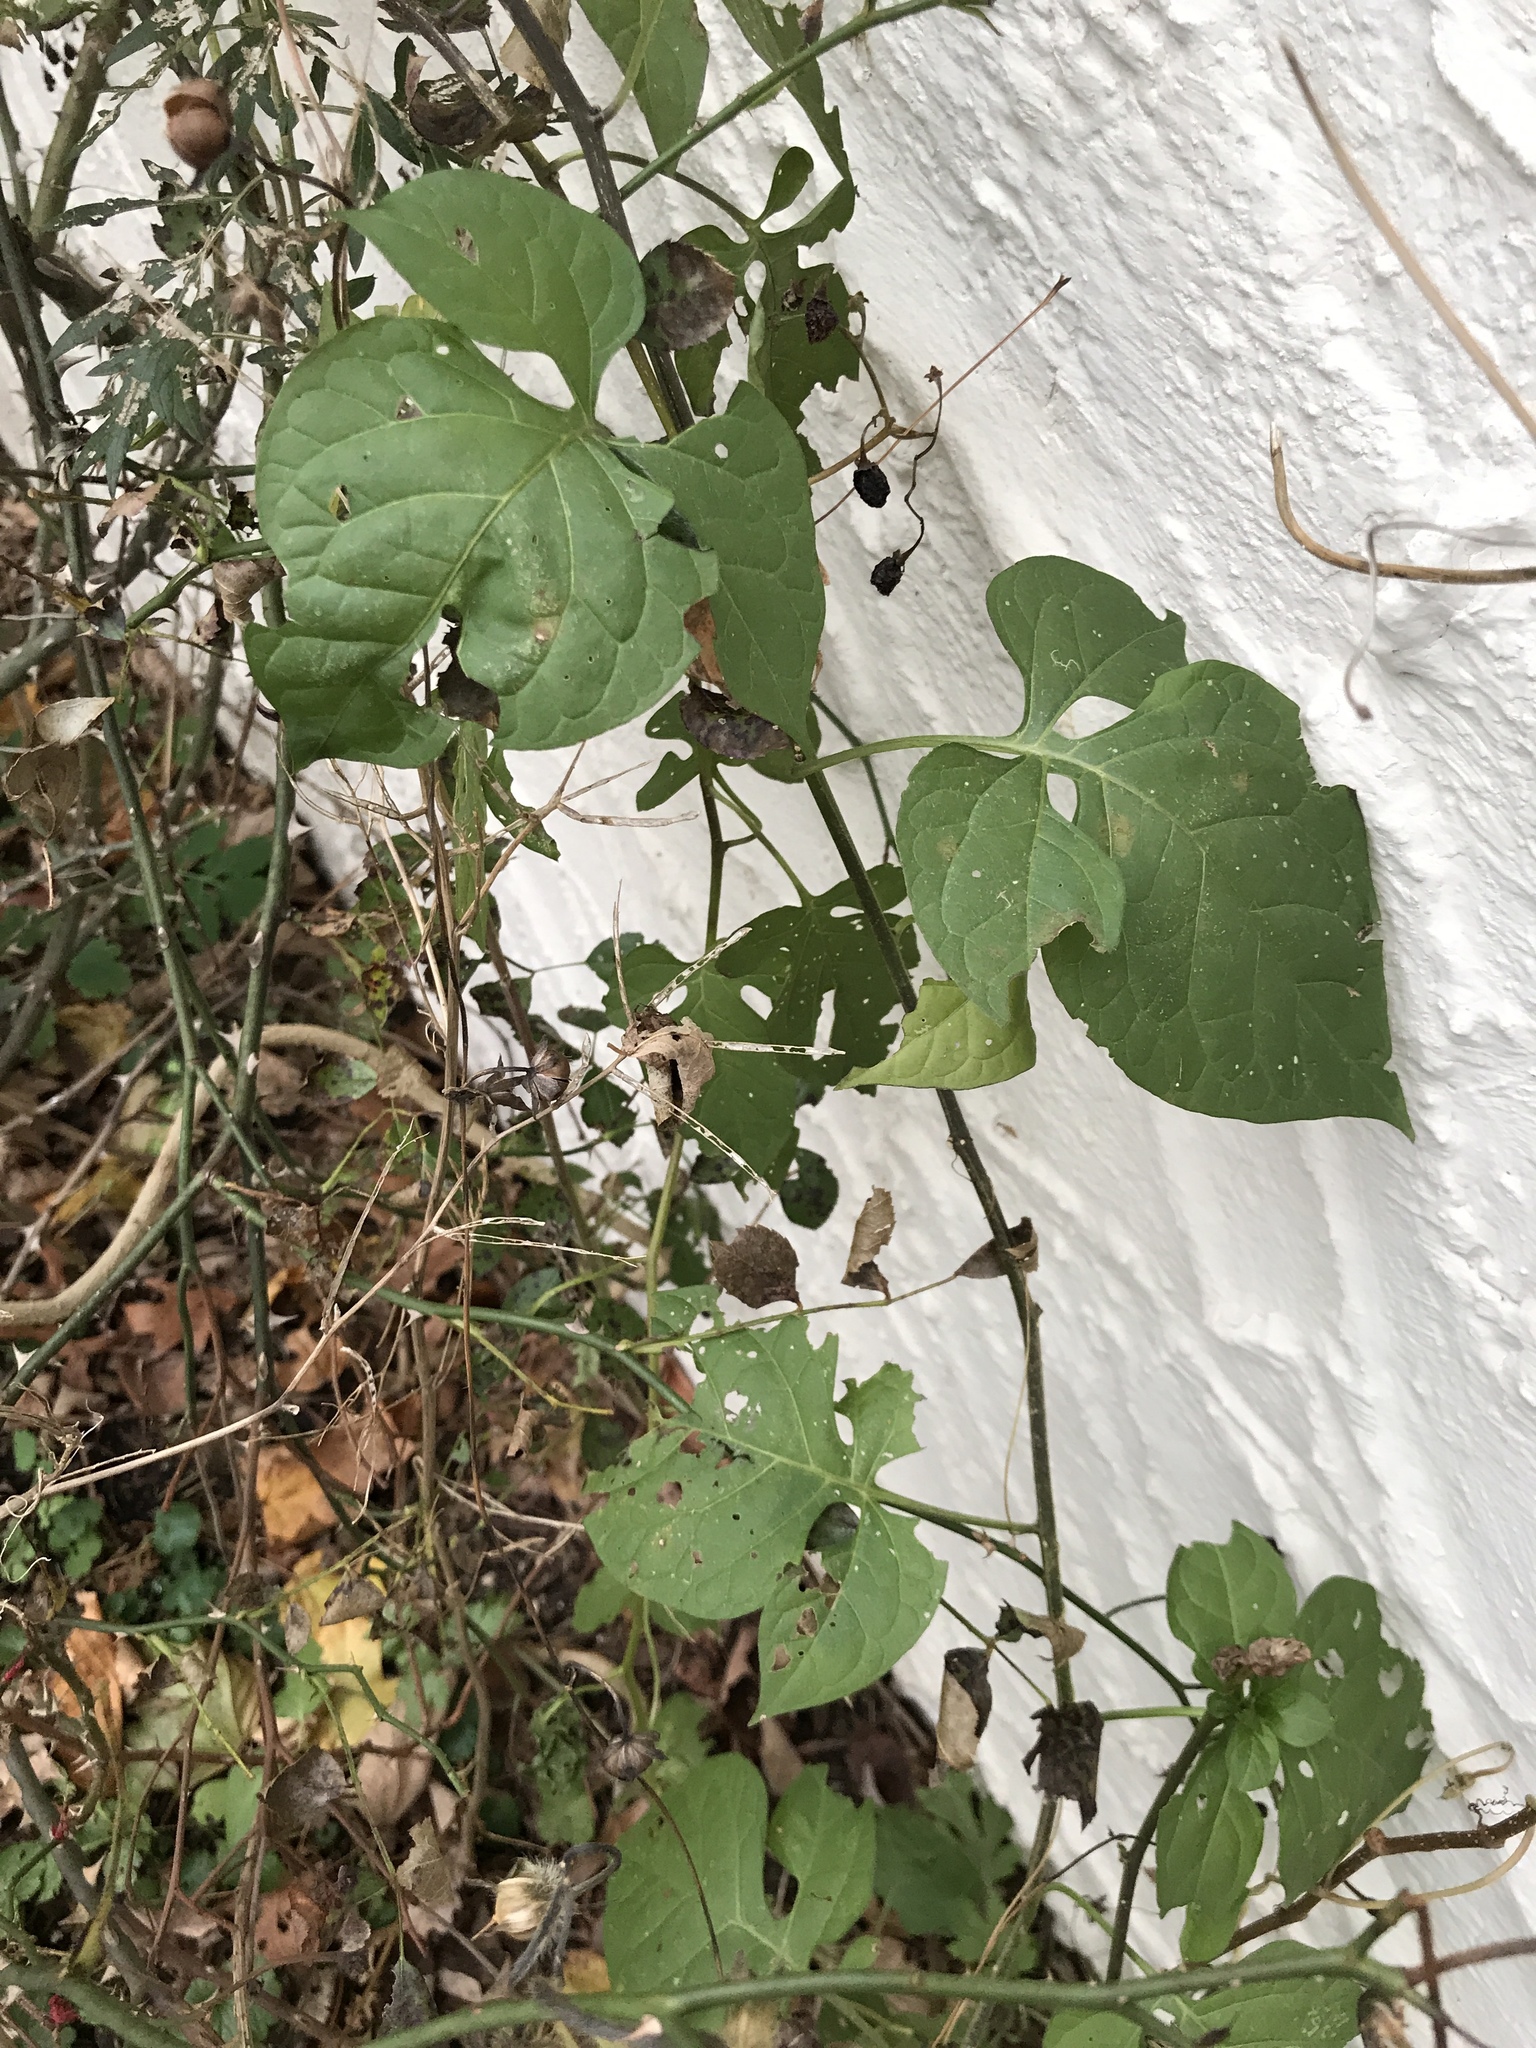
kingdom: Plantae
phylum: Tracheophyta
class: Magnoliopsida
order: Solanales
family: Solanaceae
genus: Solanum
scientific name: Solanum dulcamara
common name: Climbing nightshade
